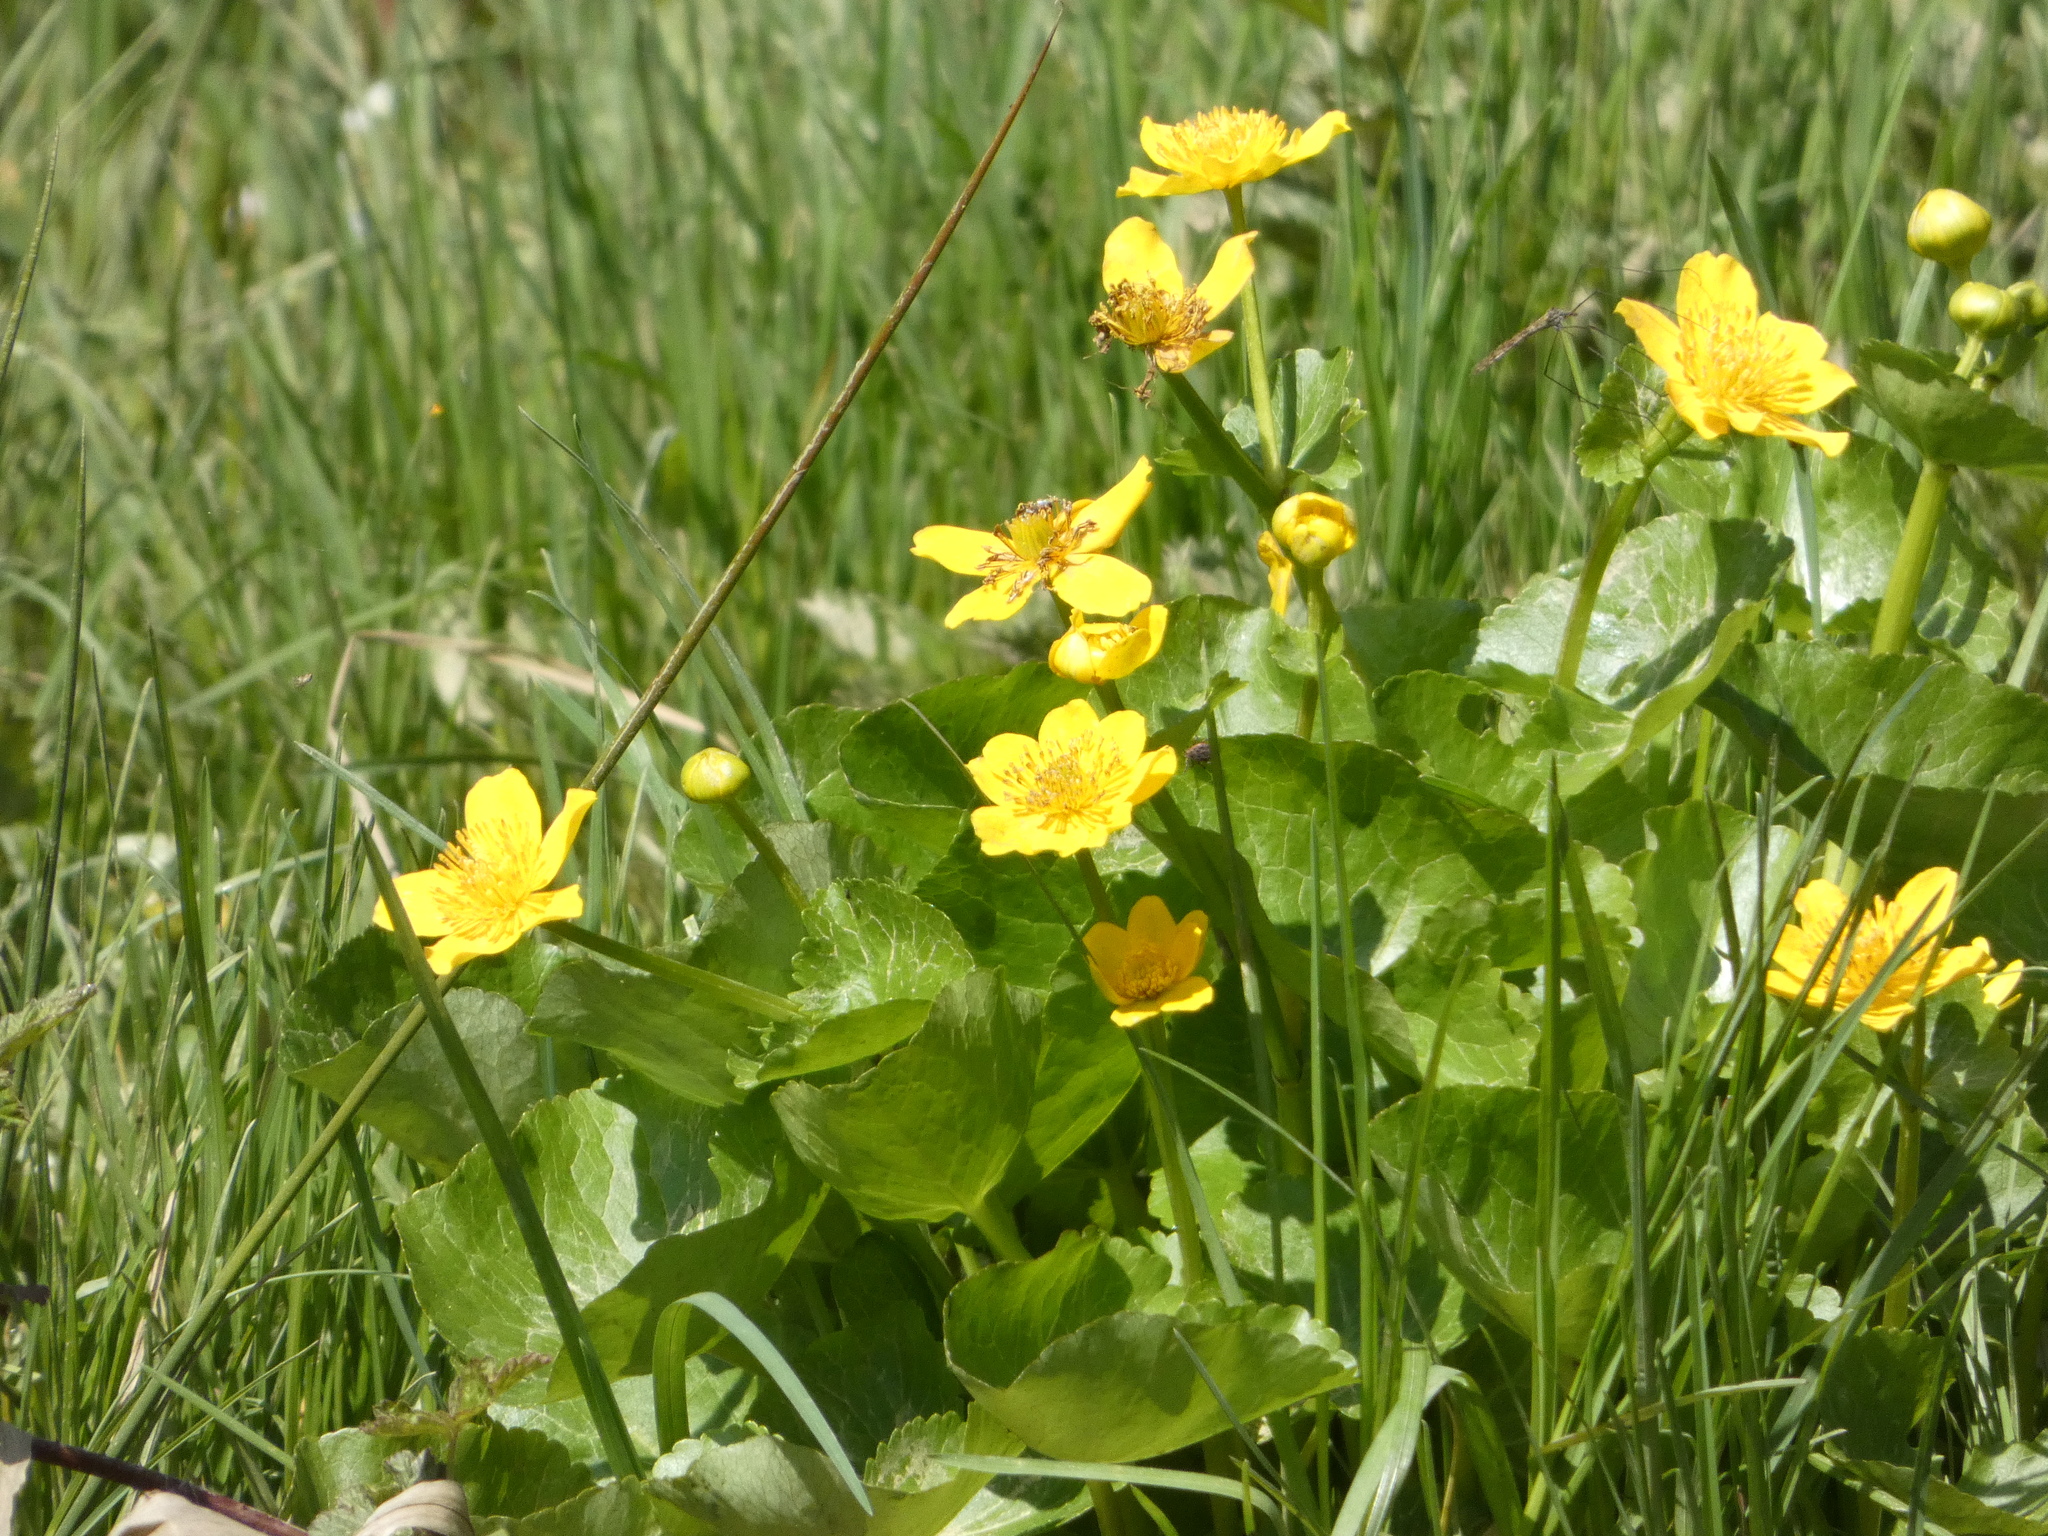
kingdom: Plantae
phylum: Tracheophyta
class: Magnoliopsida
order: Ranunculales
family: Ranunculaceae
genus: Caltha
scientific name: Caltha palustris
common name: Marsh marigold
